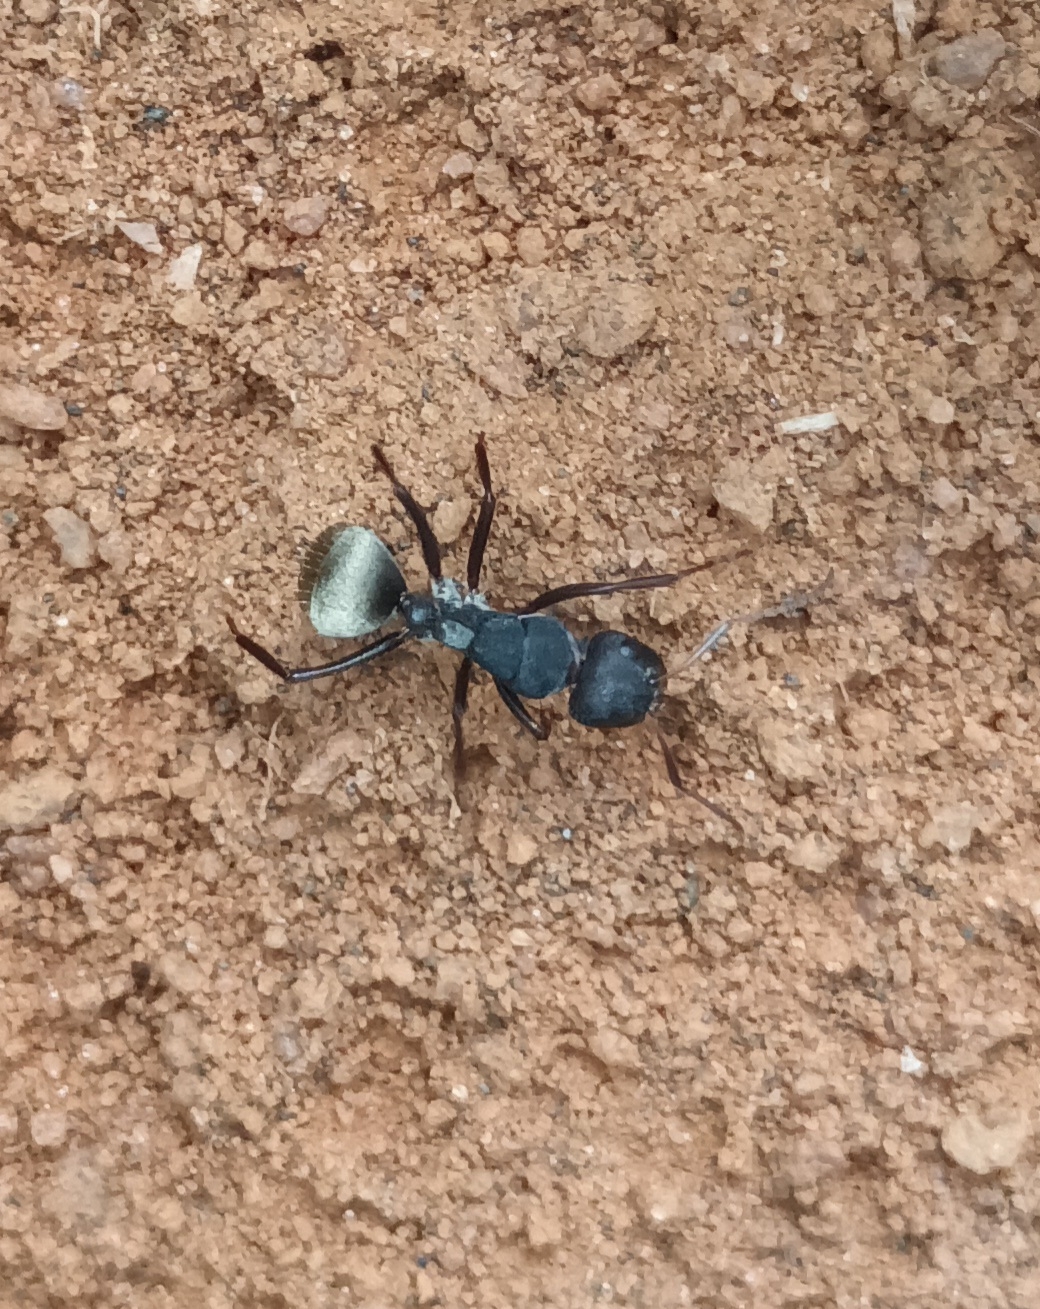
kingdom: Animalia
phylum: Arthropoda
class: Insecta
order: Hymenoptera
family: Formicidae
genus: Camponotus
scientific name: Camponotus sericeus
